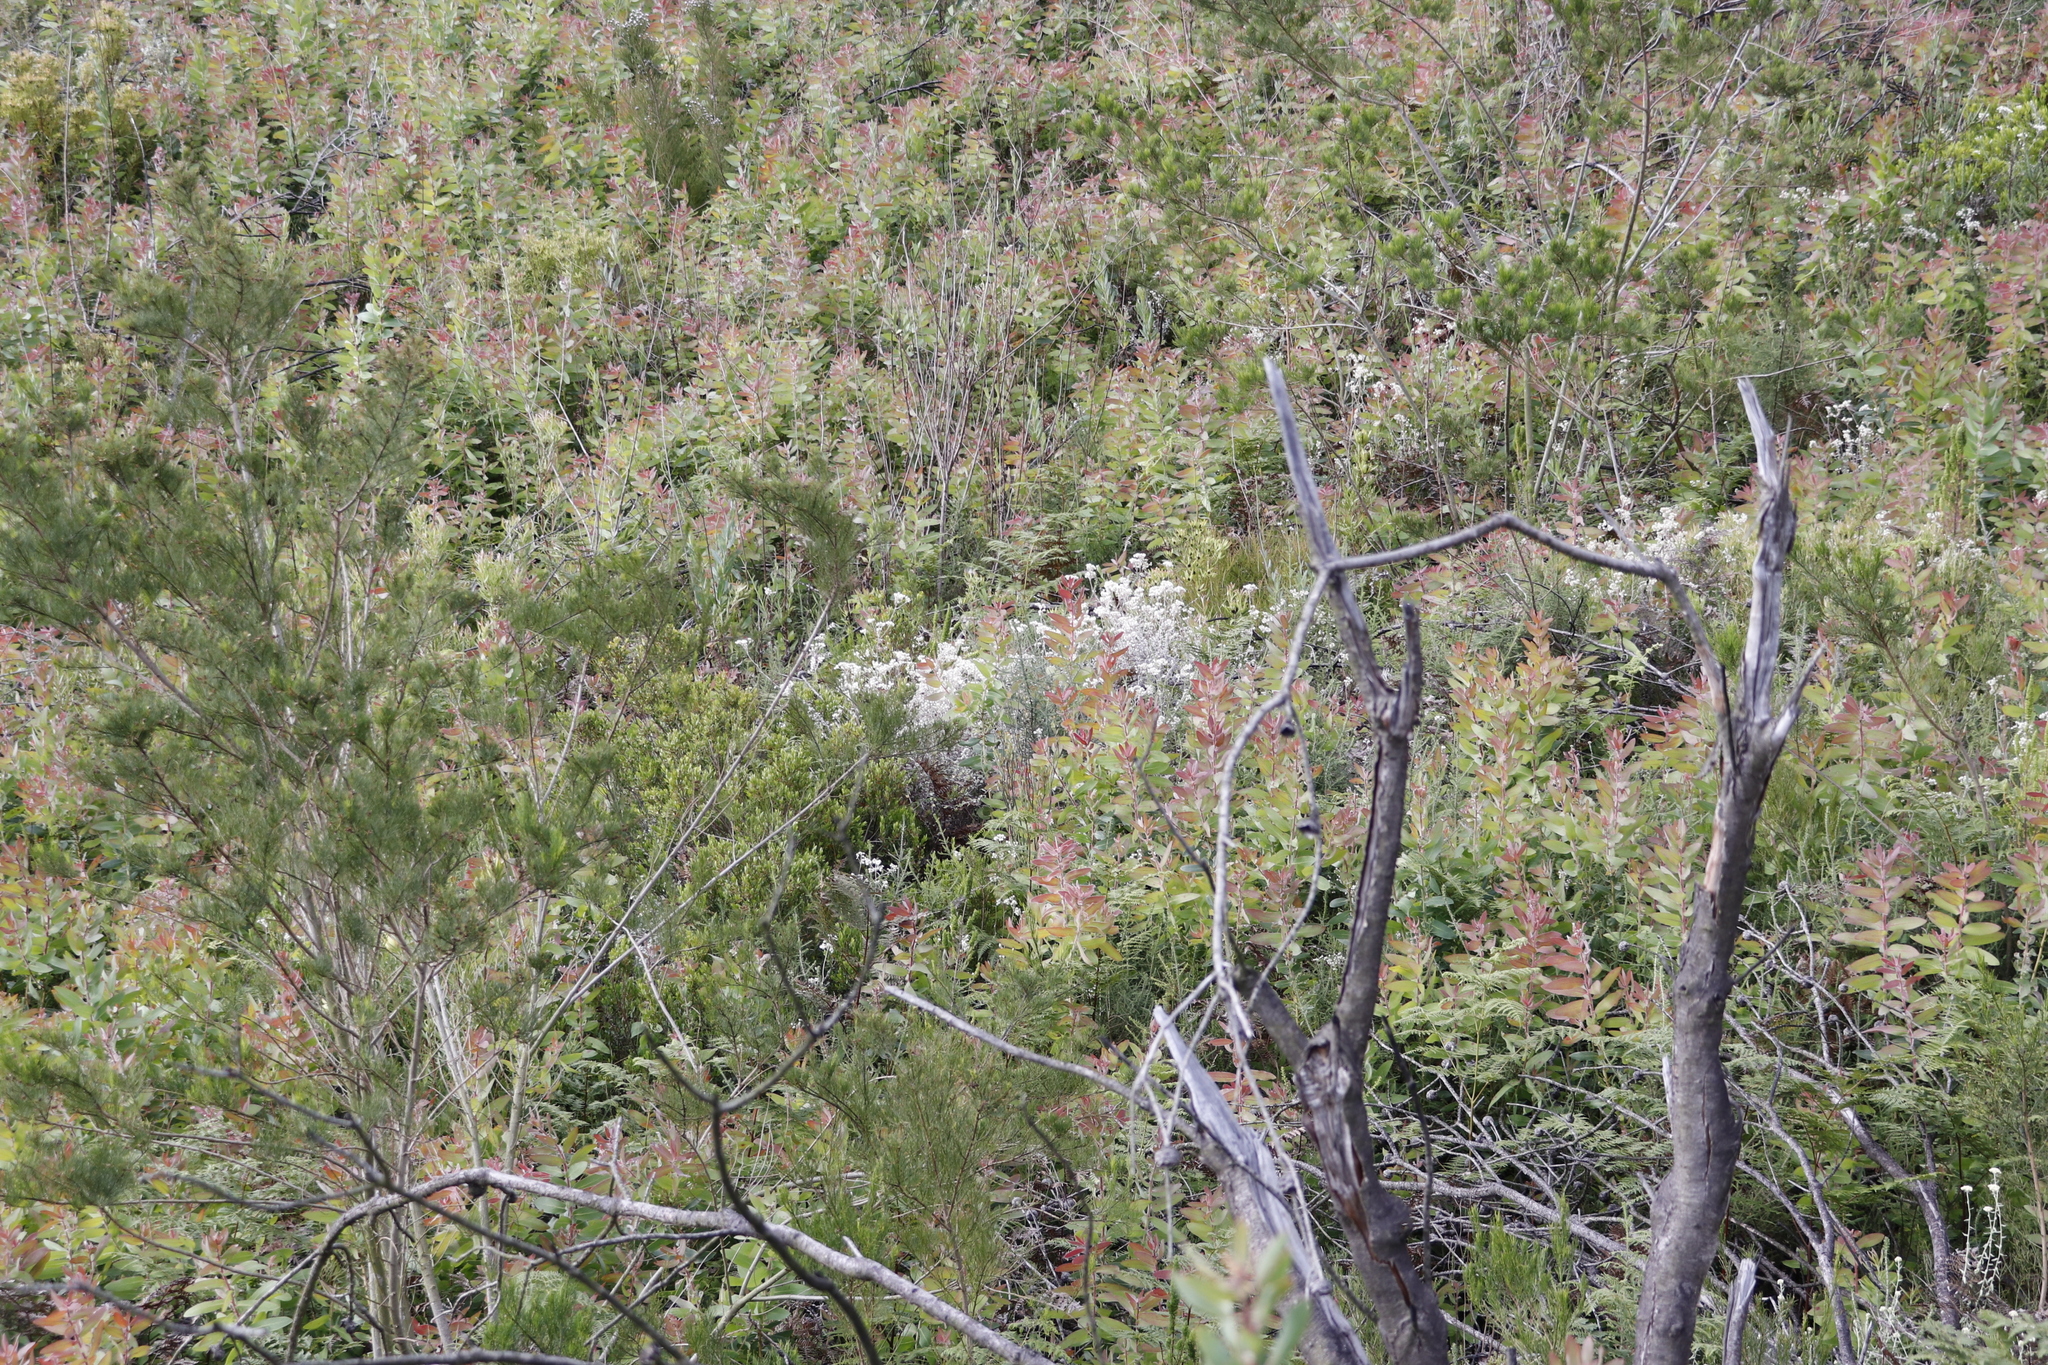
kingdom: Plantae
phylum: Tracheophyta
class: Magnoliopsida
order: Proteales
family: Proteaceae
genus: Protea
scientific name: Protea aurea
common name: Shuttlecock sugarbush
